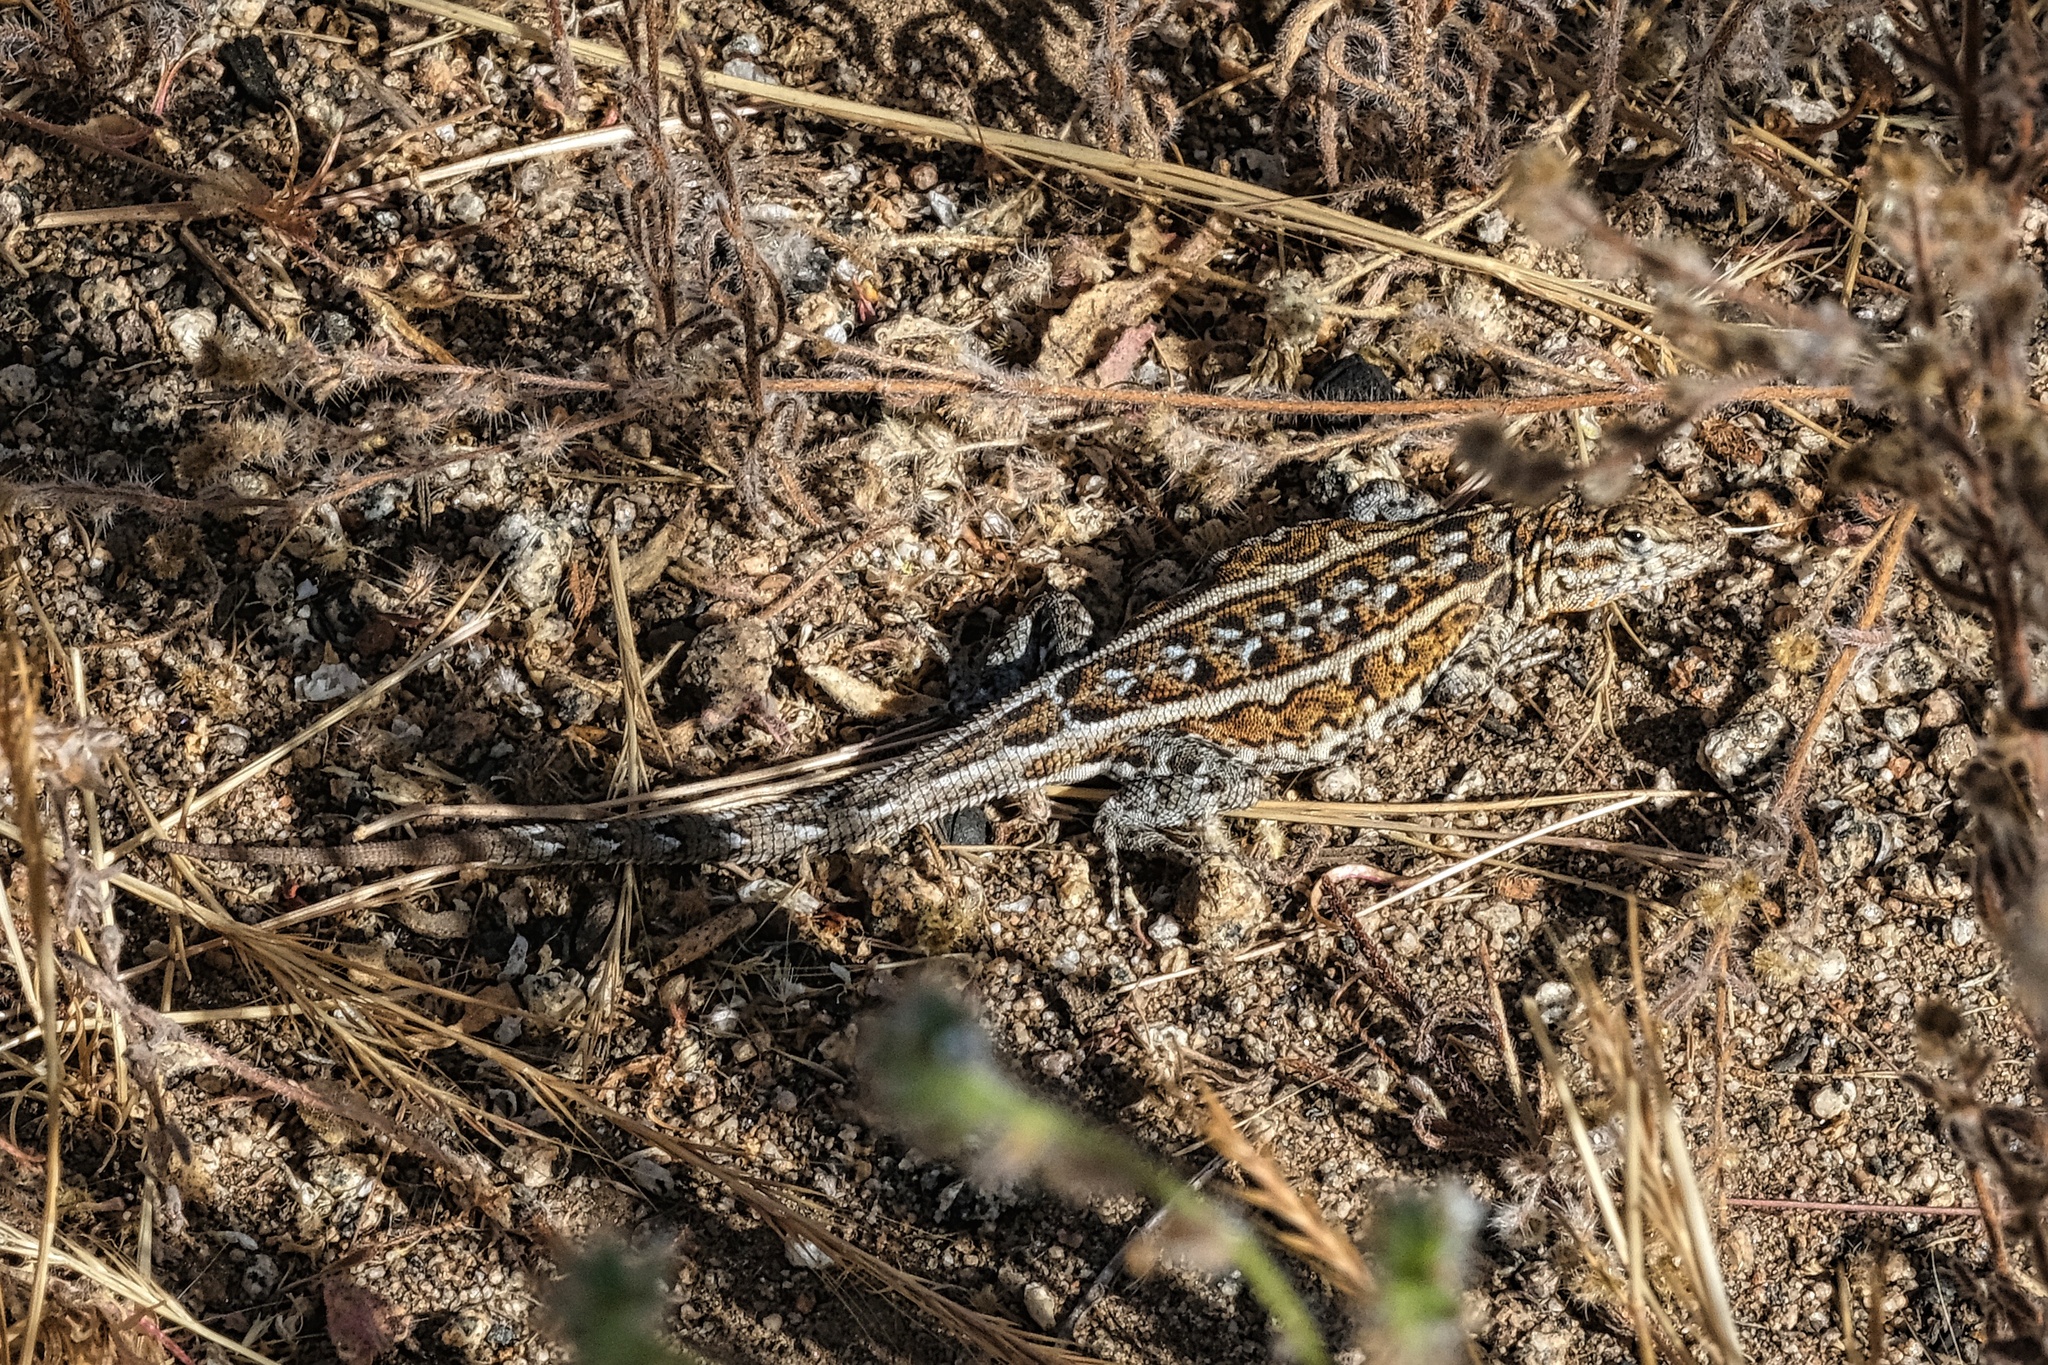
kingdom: Animalia
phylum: Chordata
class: Squamata
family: Phrynosomatidae
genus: Uta
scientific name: Uta stansburiana
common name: Side-blotched lizard
